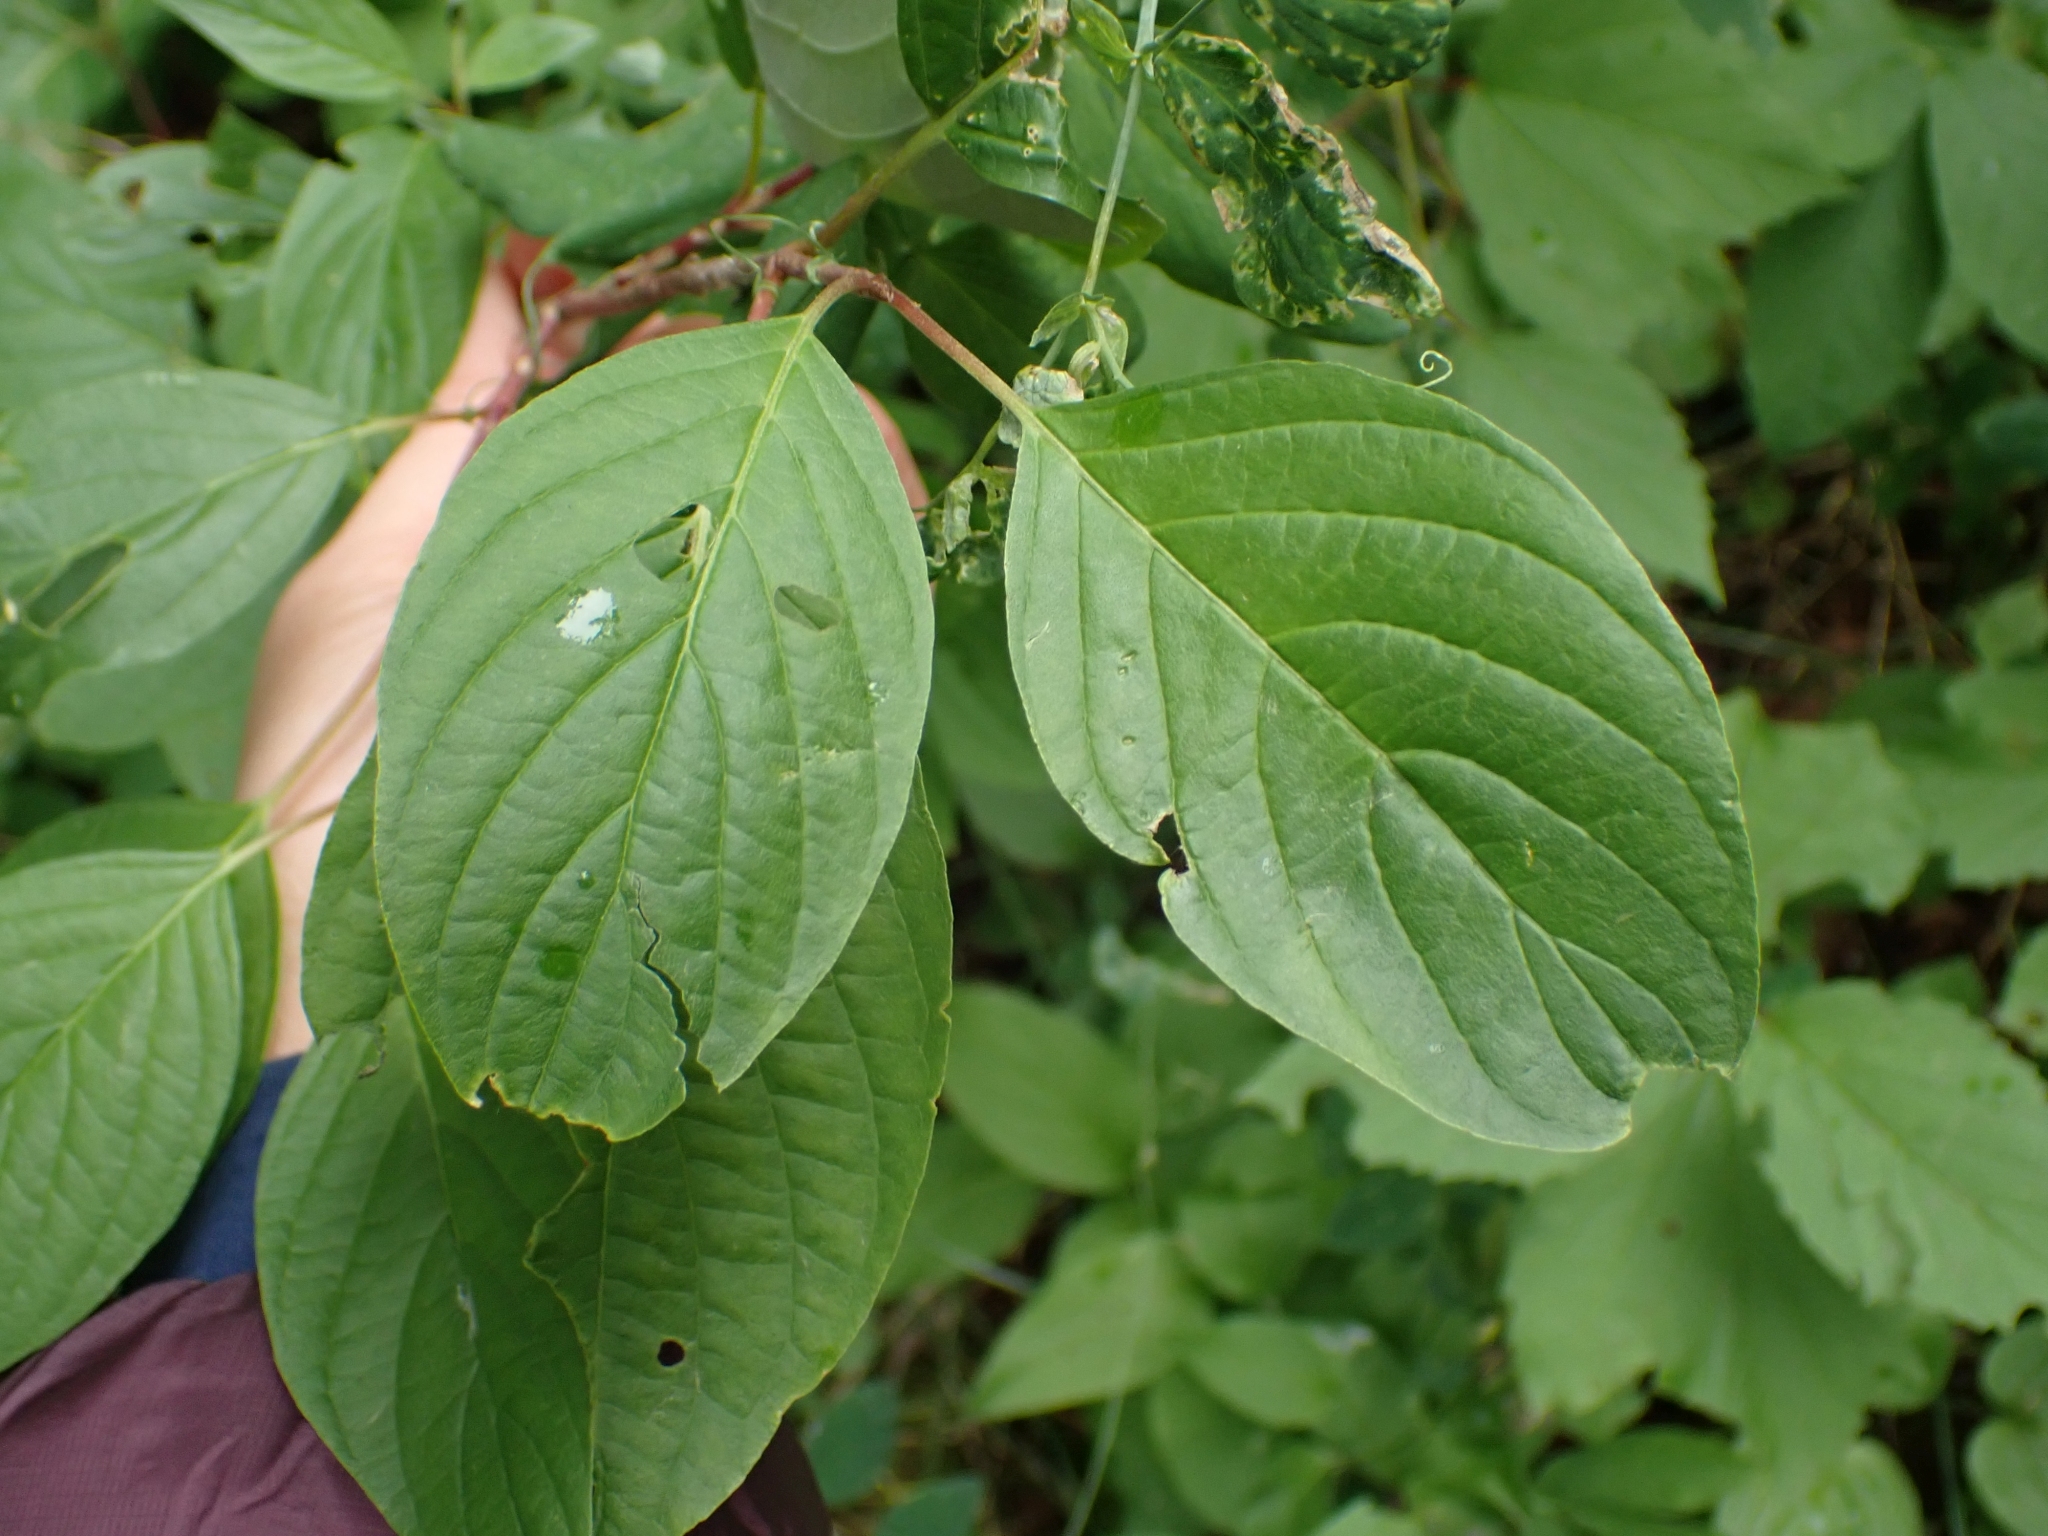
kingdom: Plantae
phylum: Tracheophyta
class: Magnoliopsida
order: Cornales
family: Cornaceae
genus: Cornus
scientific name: Cornus sericea
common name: Red-osier dogwood
